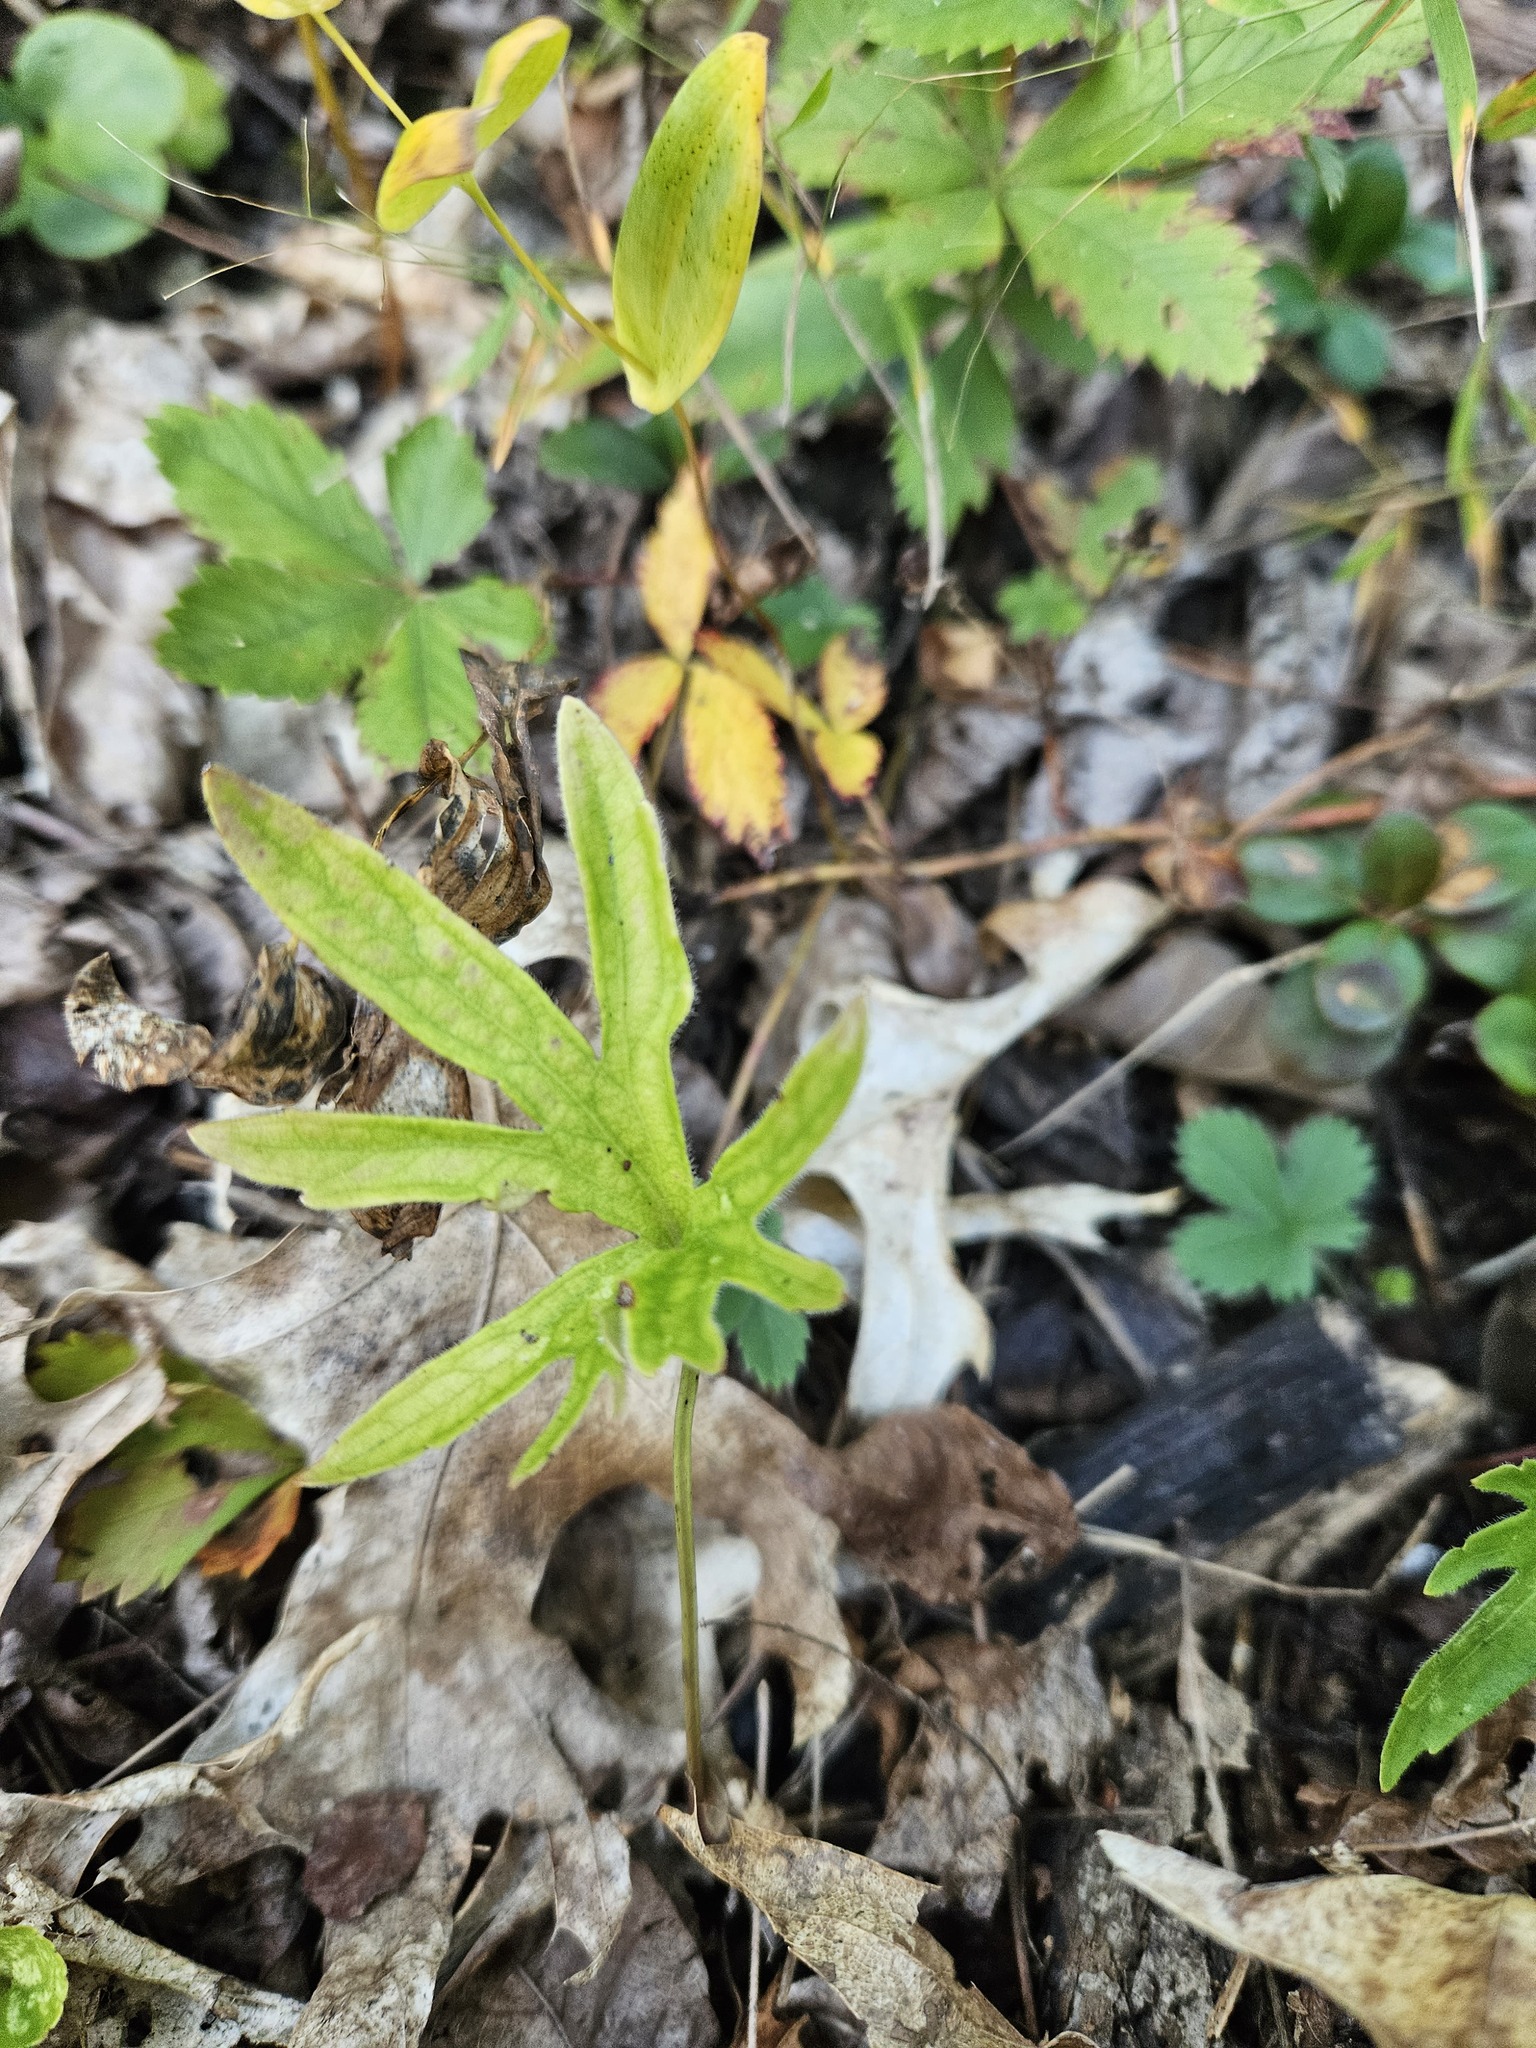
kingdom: Plantae
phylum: Tracheophyta
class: Magnoliopsida
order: Malpighiales
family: Violaceae
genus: Viola
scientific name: Viola subsinuata
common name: Wood violet
